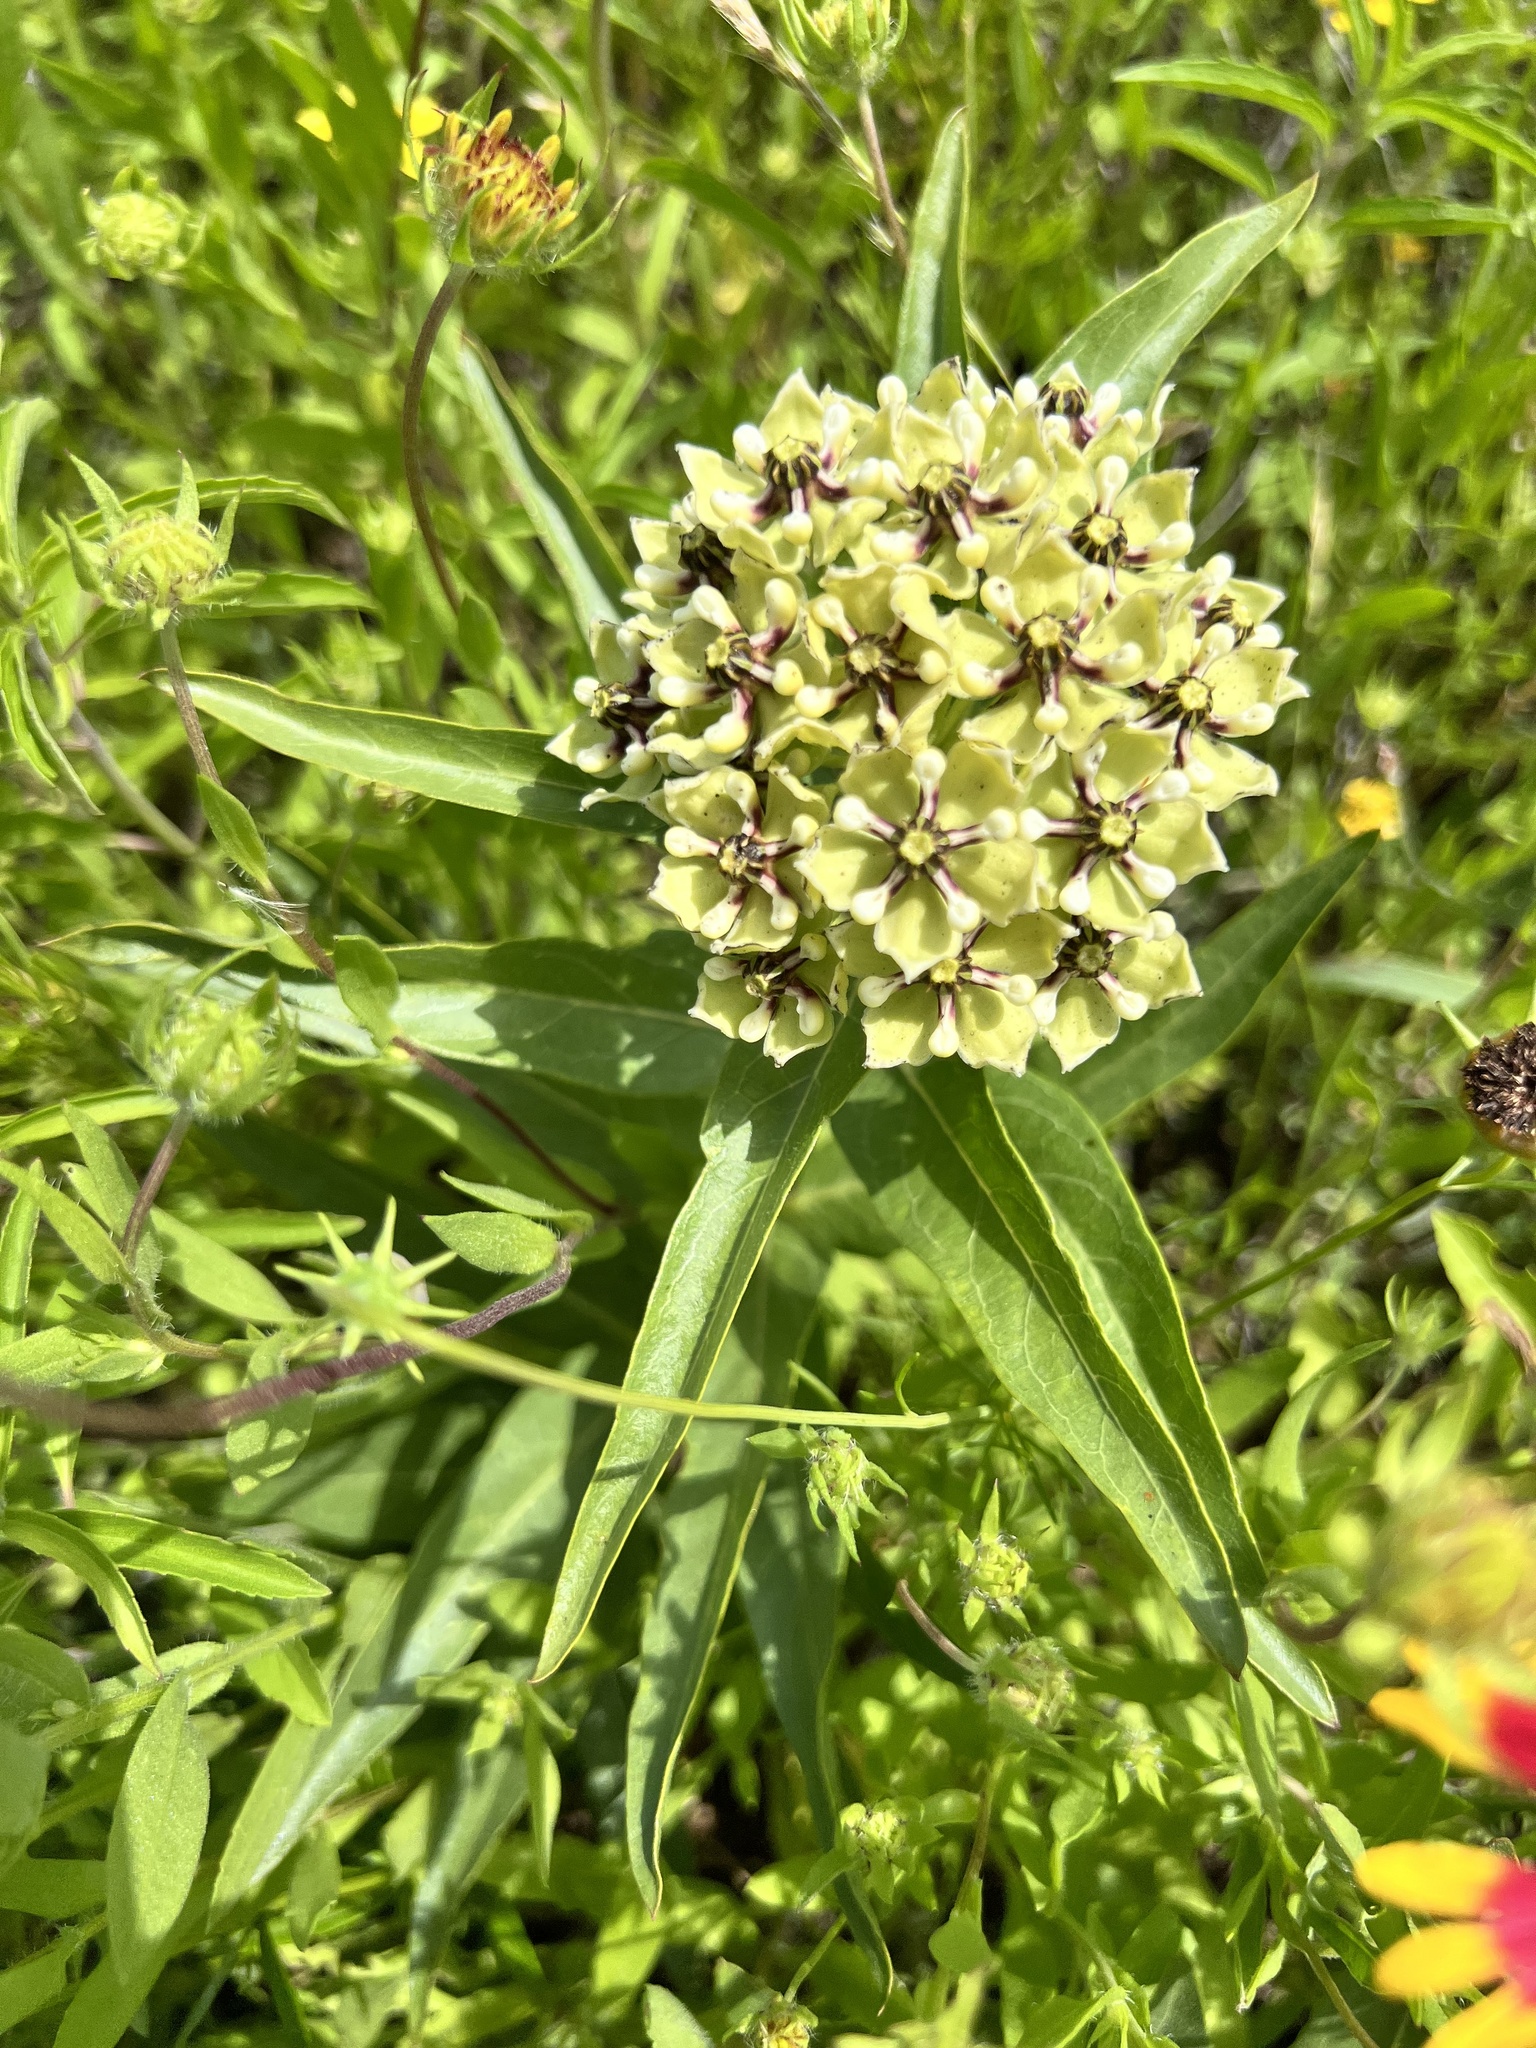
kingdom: Plantae
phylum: Tracheophyta
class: Magnoliopsida
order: Gentianales
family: Apocynaceae
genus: Asclepias
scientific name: Asclepias asperula
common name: Antelope horns
